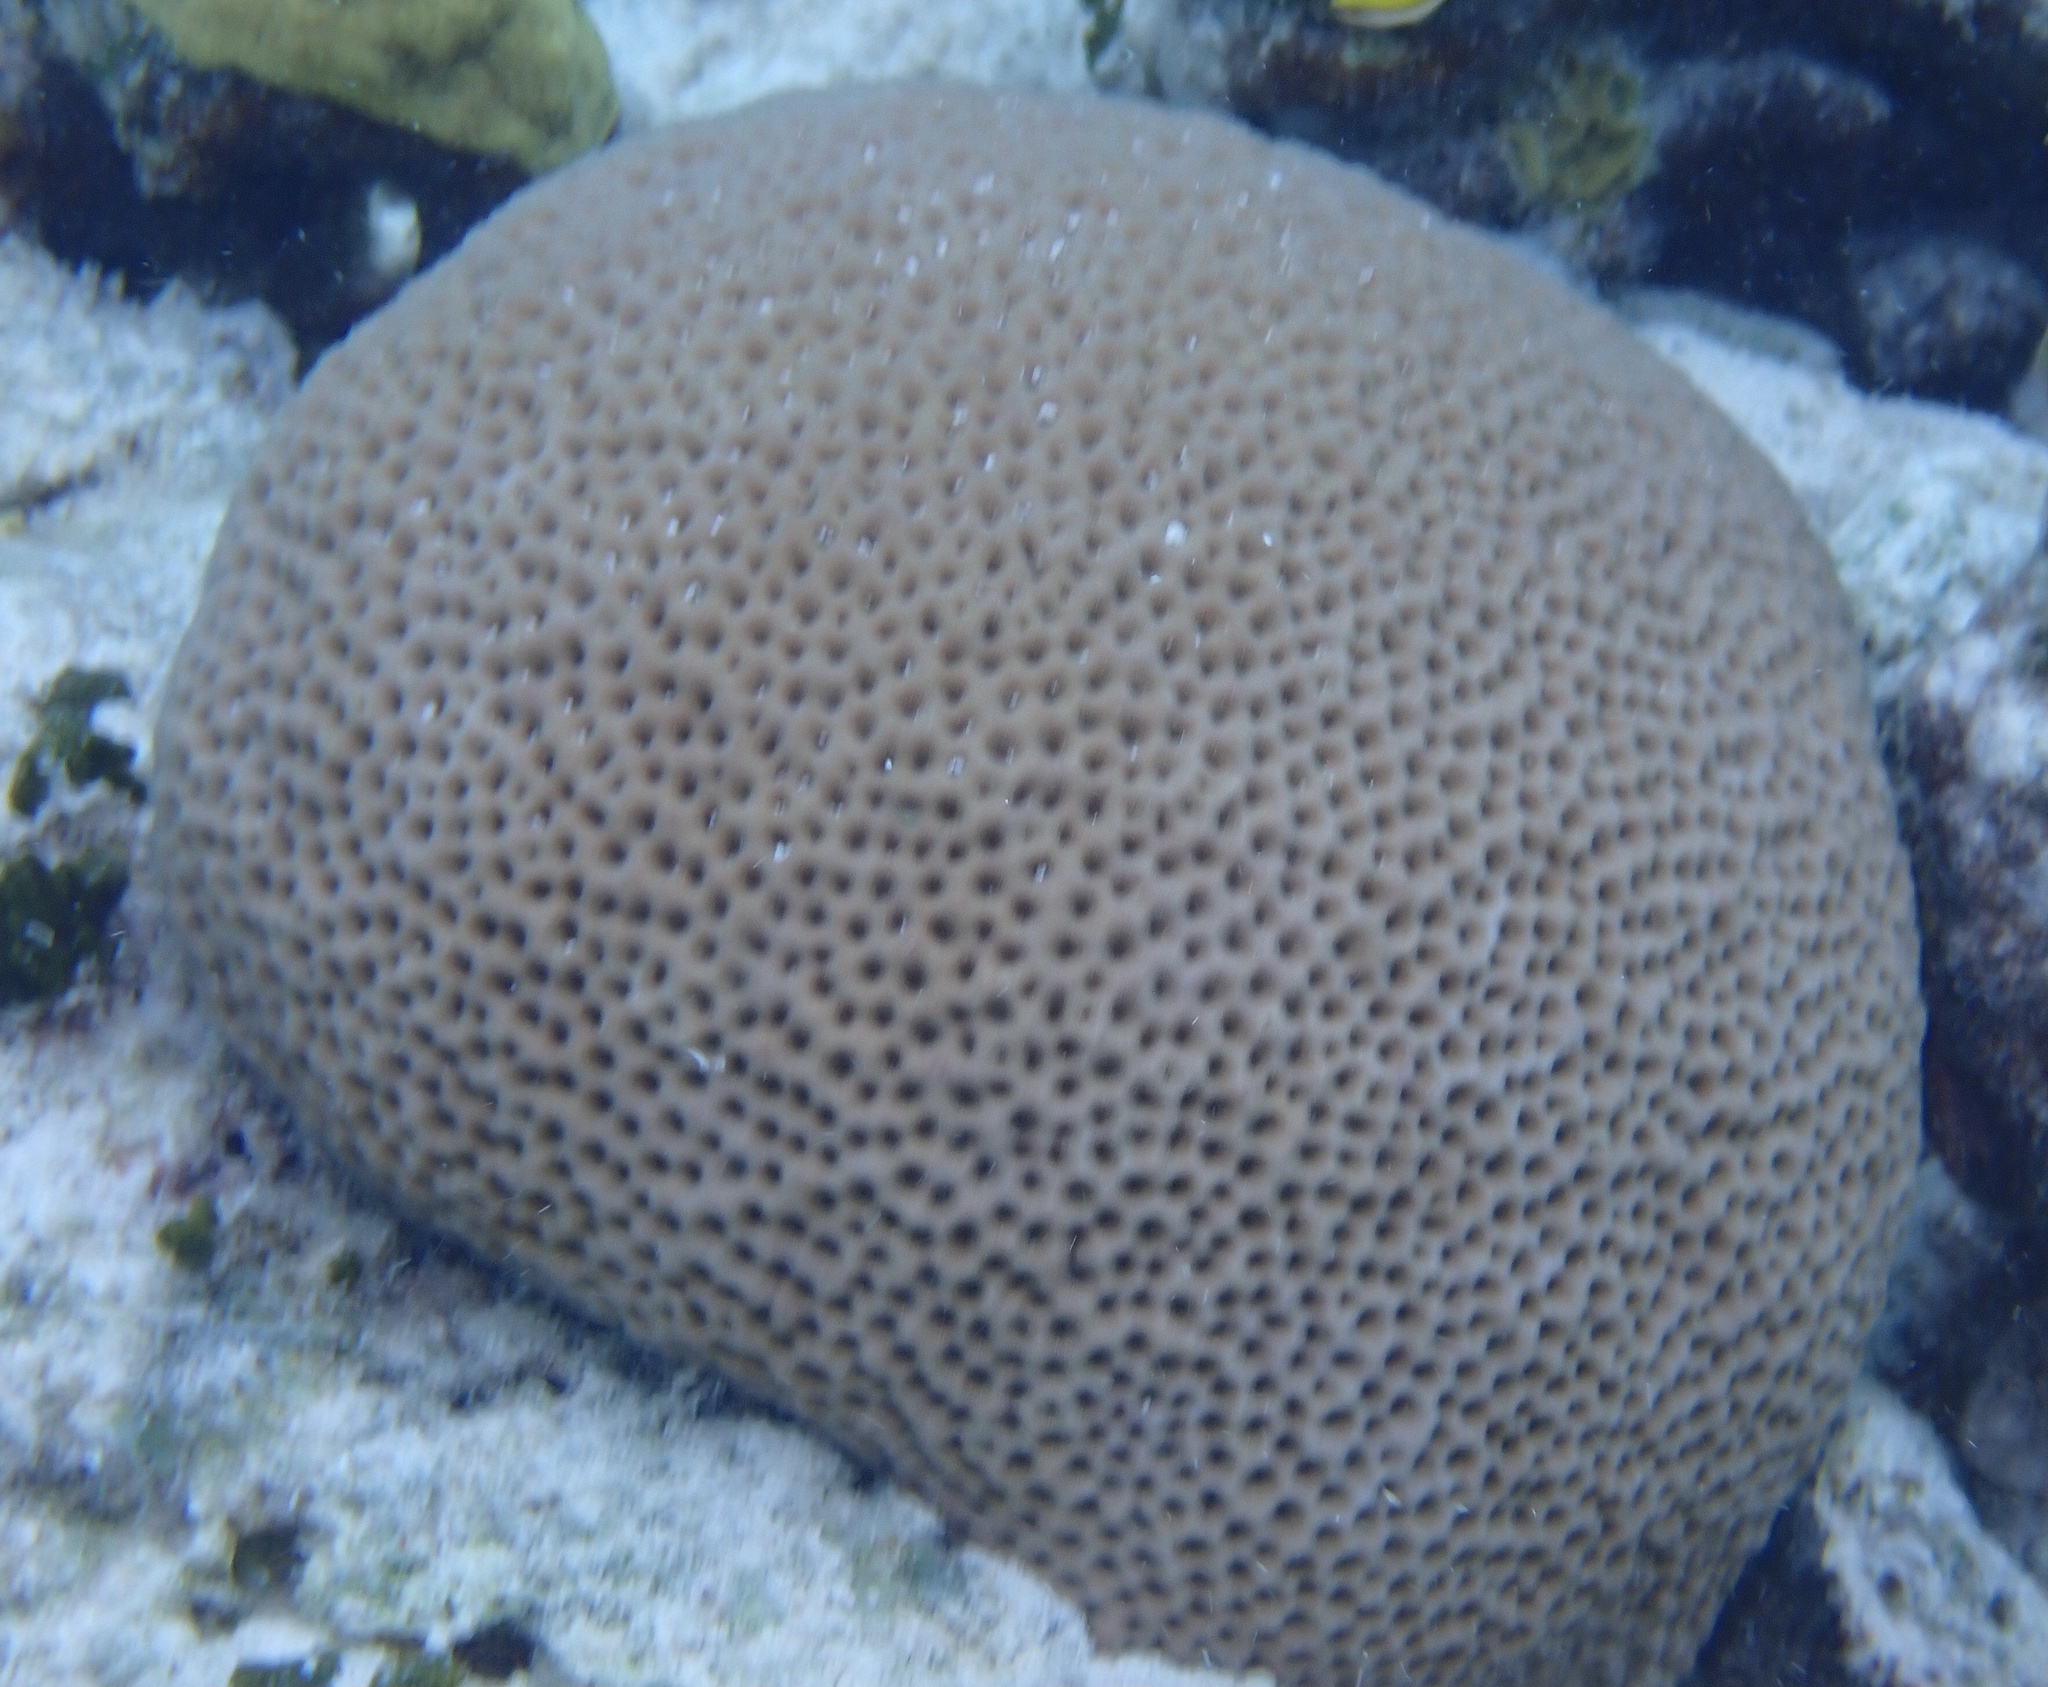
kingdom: Animalia
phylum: Cnidaria
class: Anthozoa
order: Scleractinia
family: Rhizangiidae
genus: Siderastrea
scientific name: Siderastrea siderea
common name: Massive starlet coral
